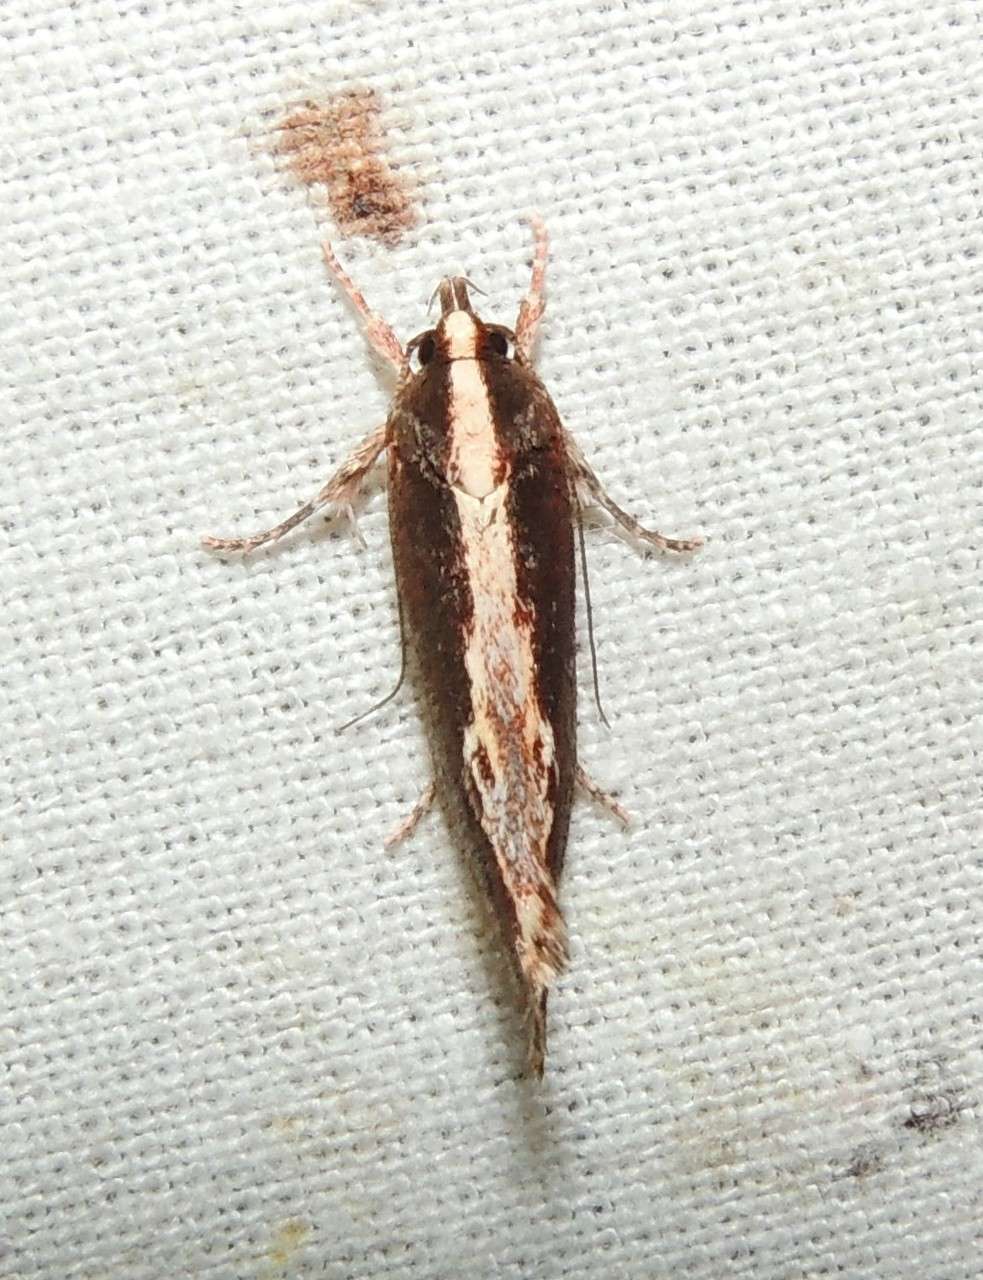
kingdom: Animalia
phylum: Arthropoda
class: Insecta
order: Lepidoptera
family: Oecophoridae
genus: Archaereta
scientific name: Archaereta dorsivittella
